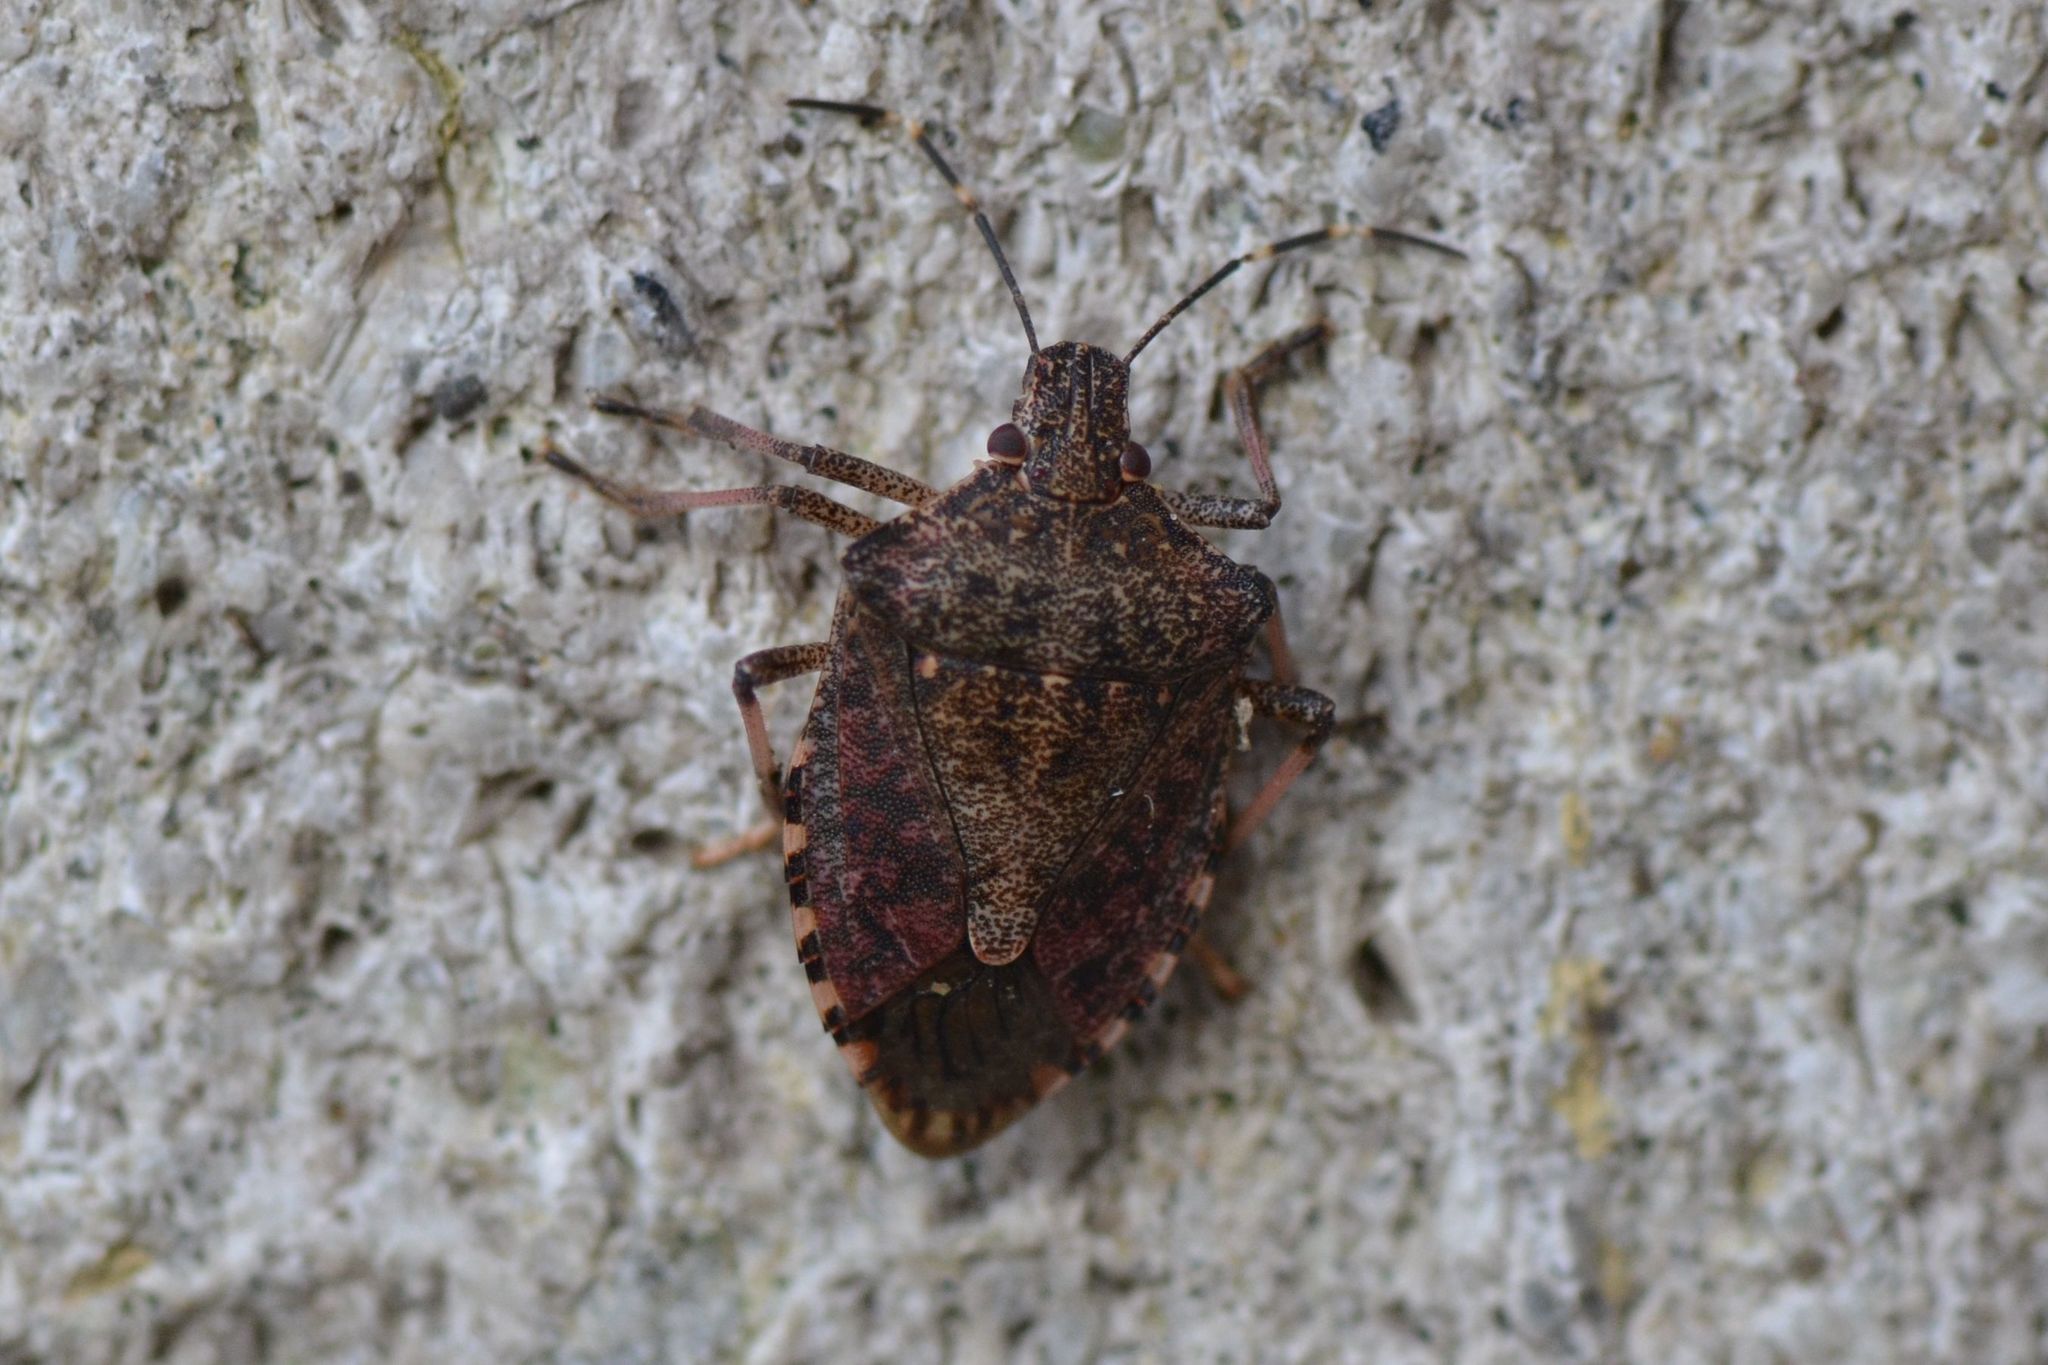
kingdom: Animalia
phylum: Arthropoda
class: Insecta
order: Hemiptera
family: Pentatomidae
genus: Halyomorpha
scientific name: Halyomorpha halys
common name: Brown marmorated stink bug
